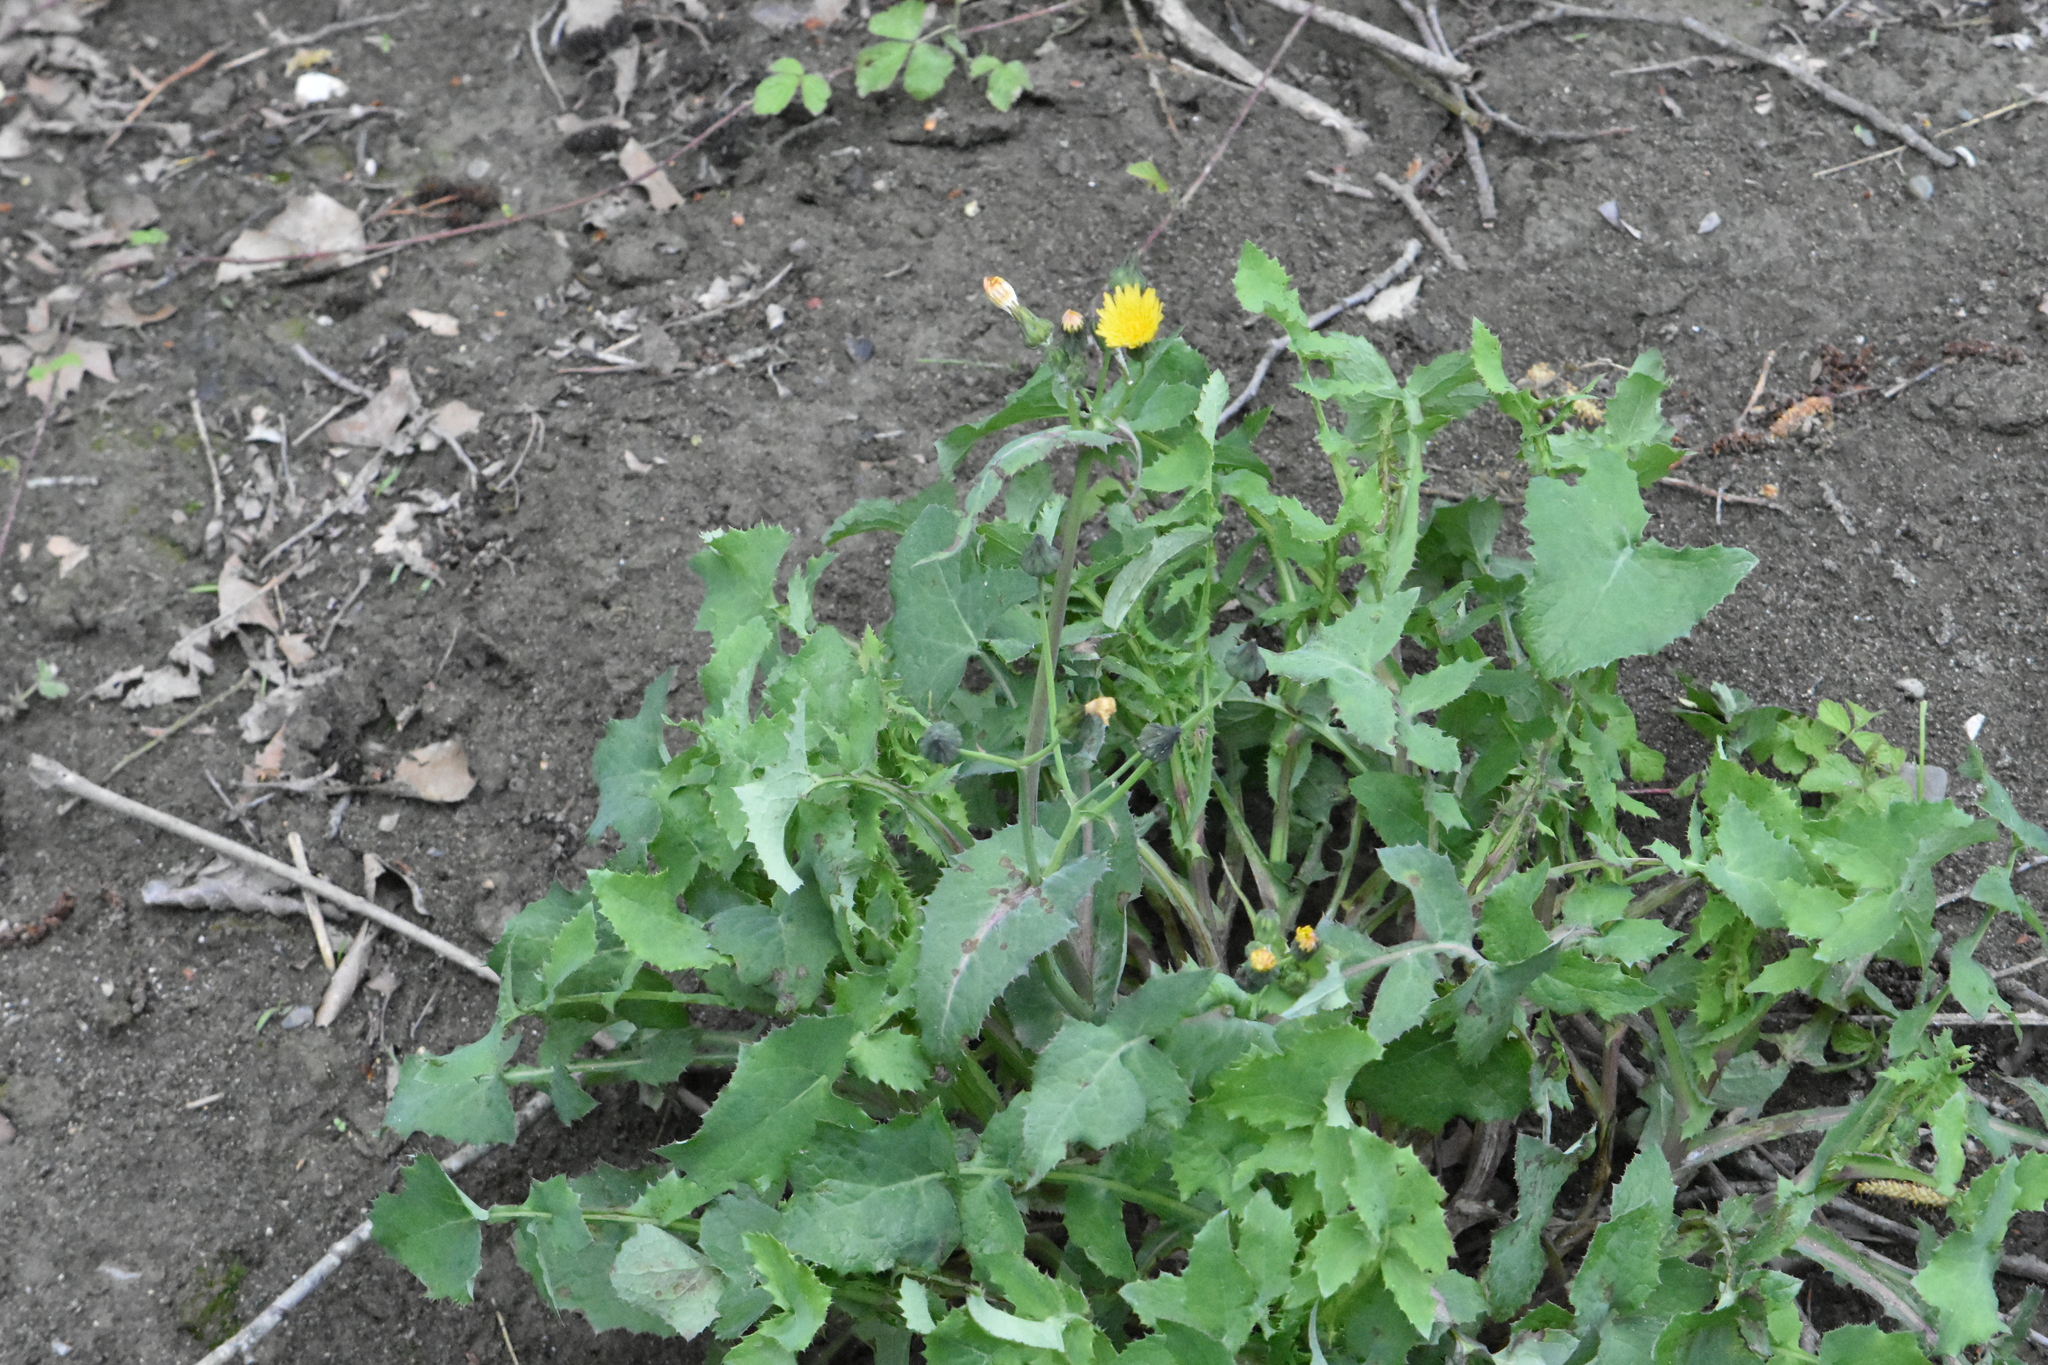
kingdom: Plantae
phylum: Tracheophyta
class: Magnoliopsida
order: Asterales
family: Asteraceae
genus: Sonchus
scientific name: Sonchus oleraceus
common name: Common sowthistle
